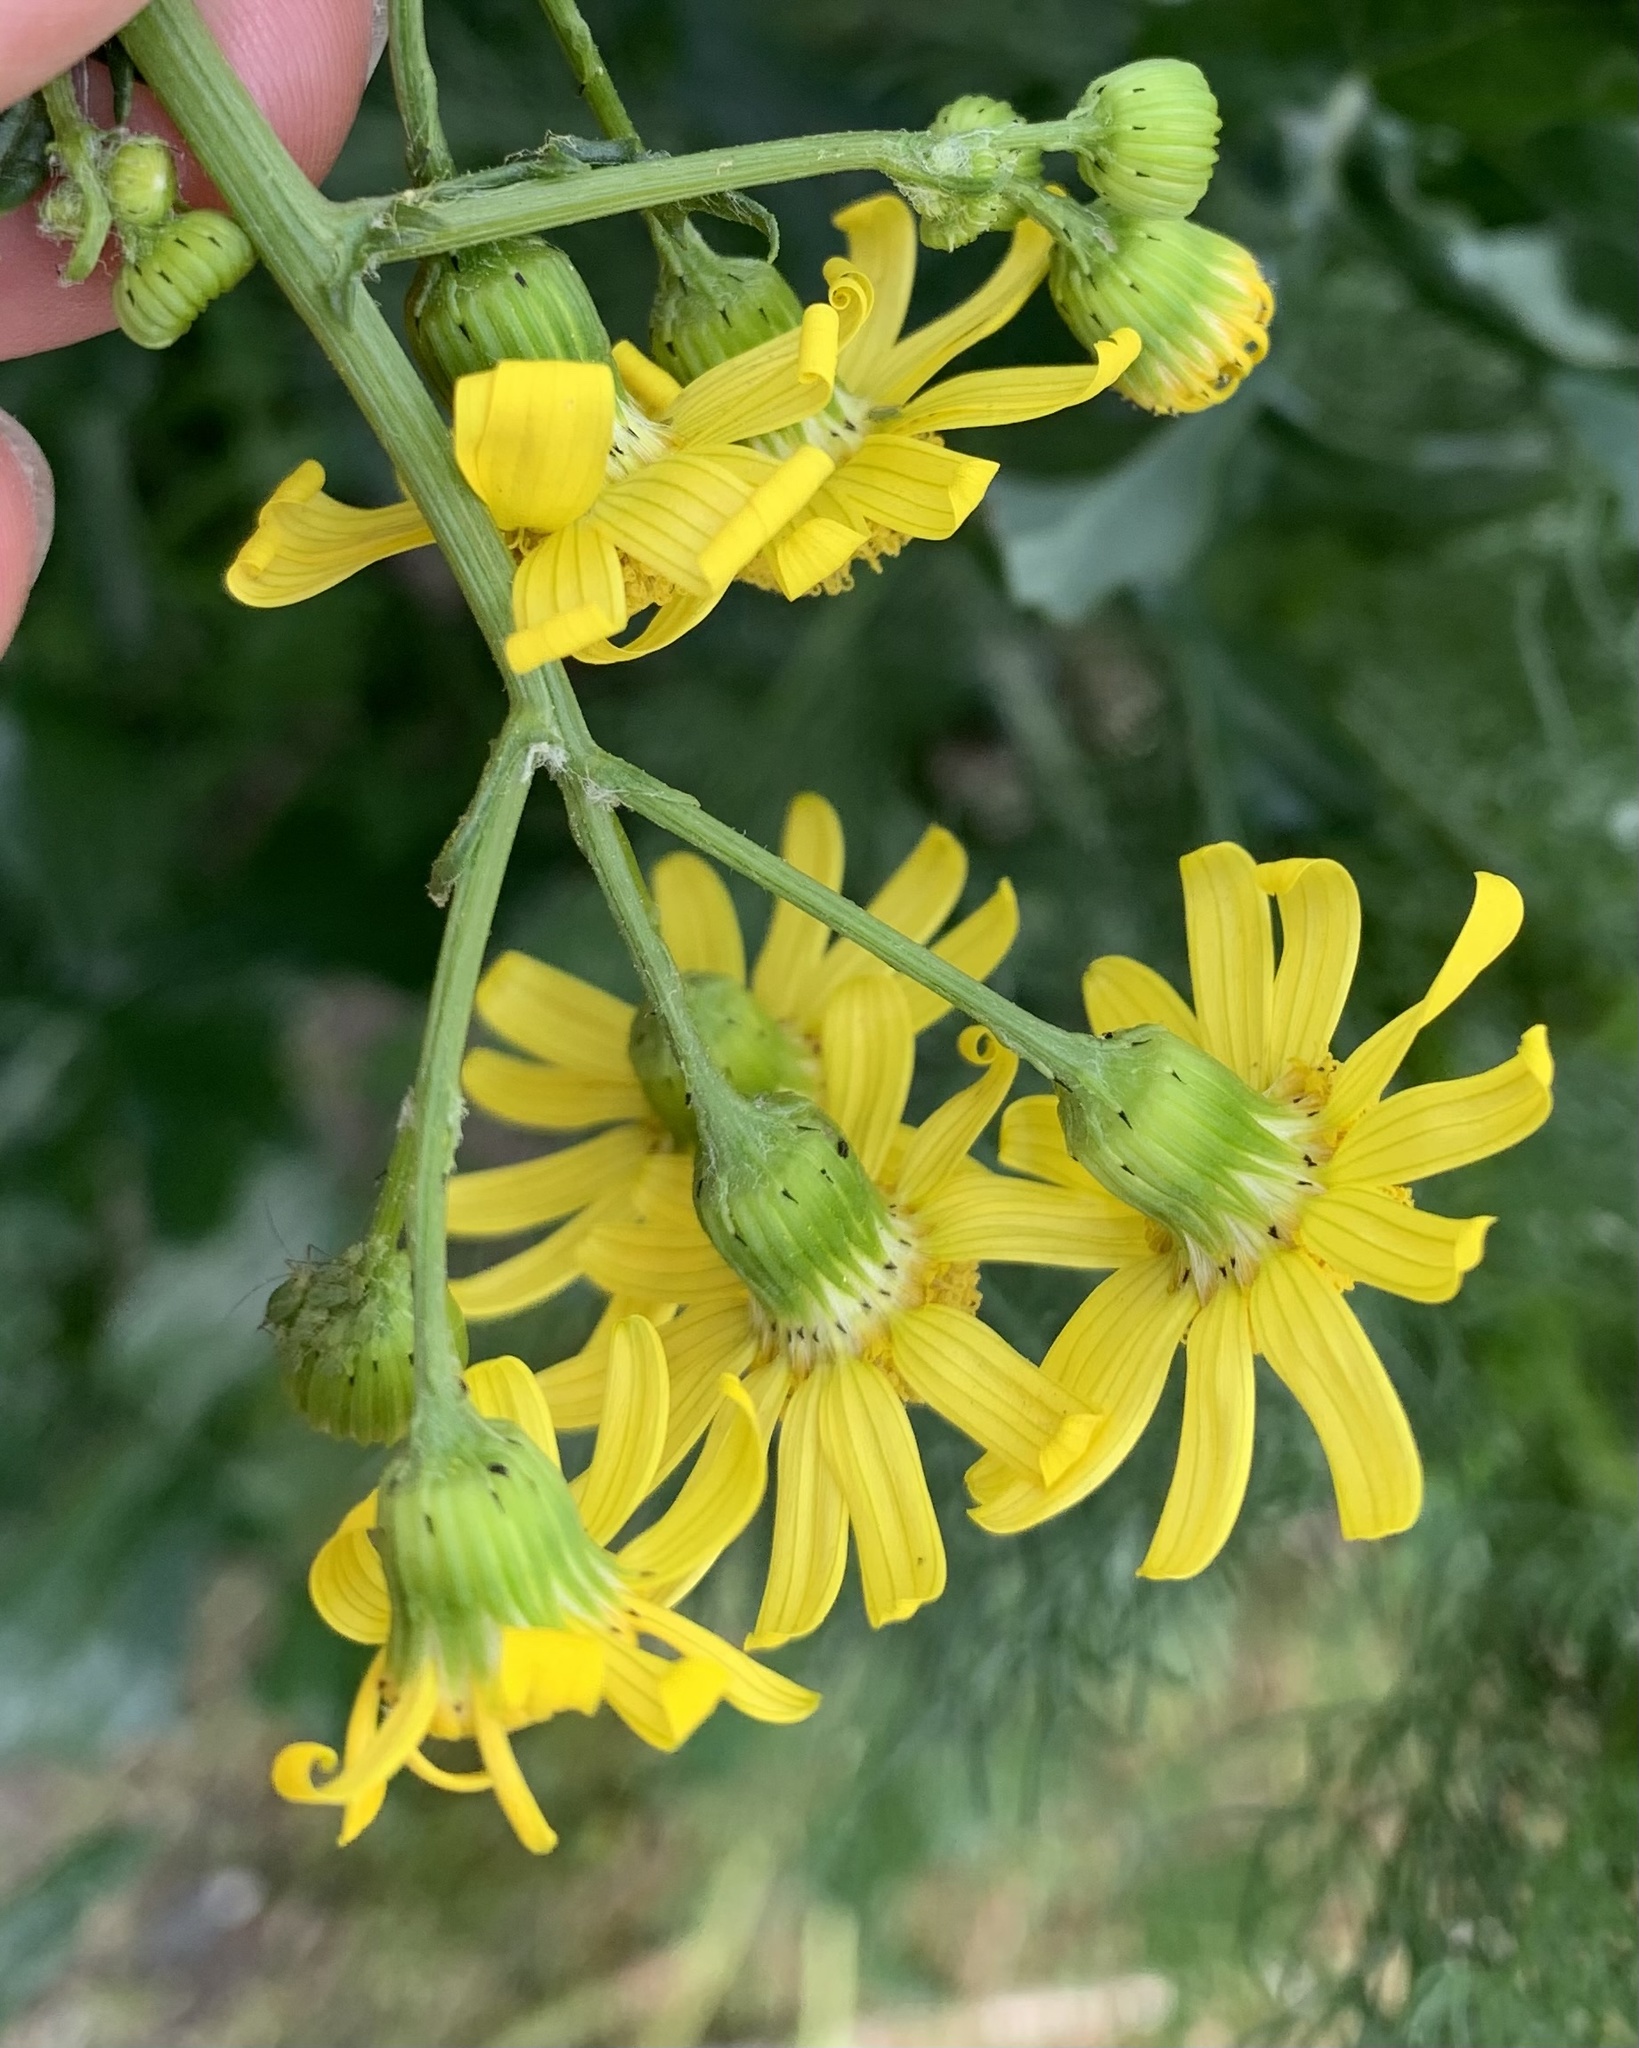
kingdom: Plantae
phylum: Tracheophyta
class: Magnoliopsida
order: Asterales
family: Asteraceae
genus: Senecio
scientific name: Senecio vernalis
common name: Eastern groundsel
